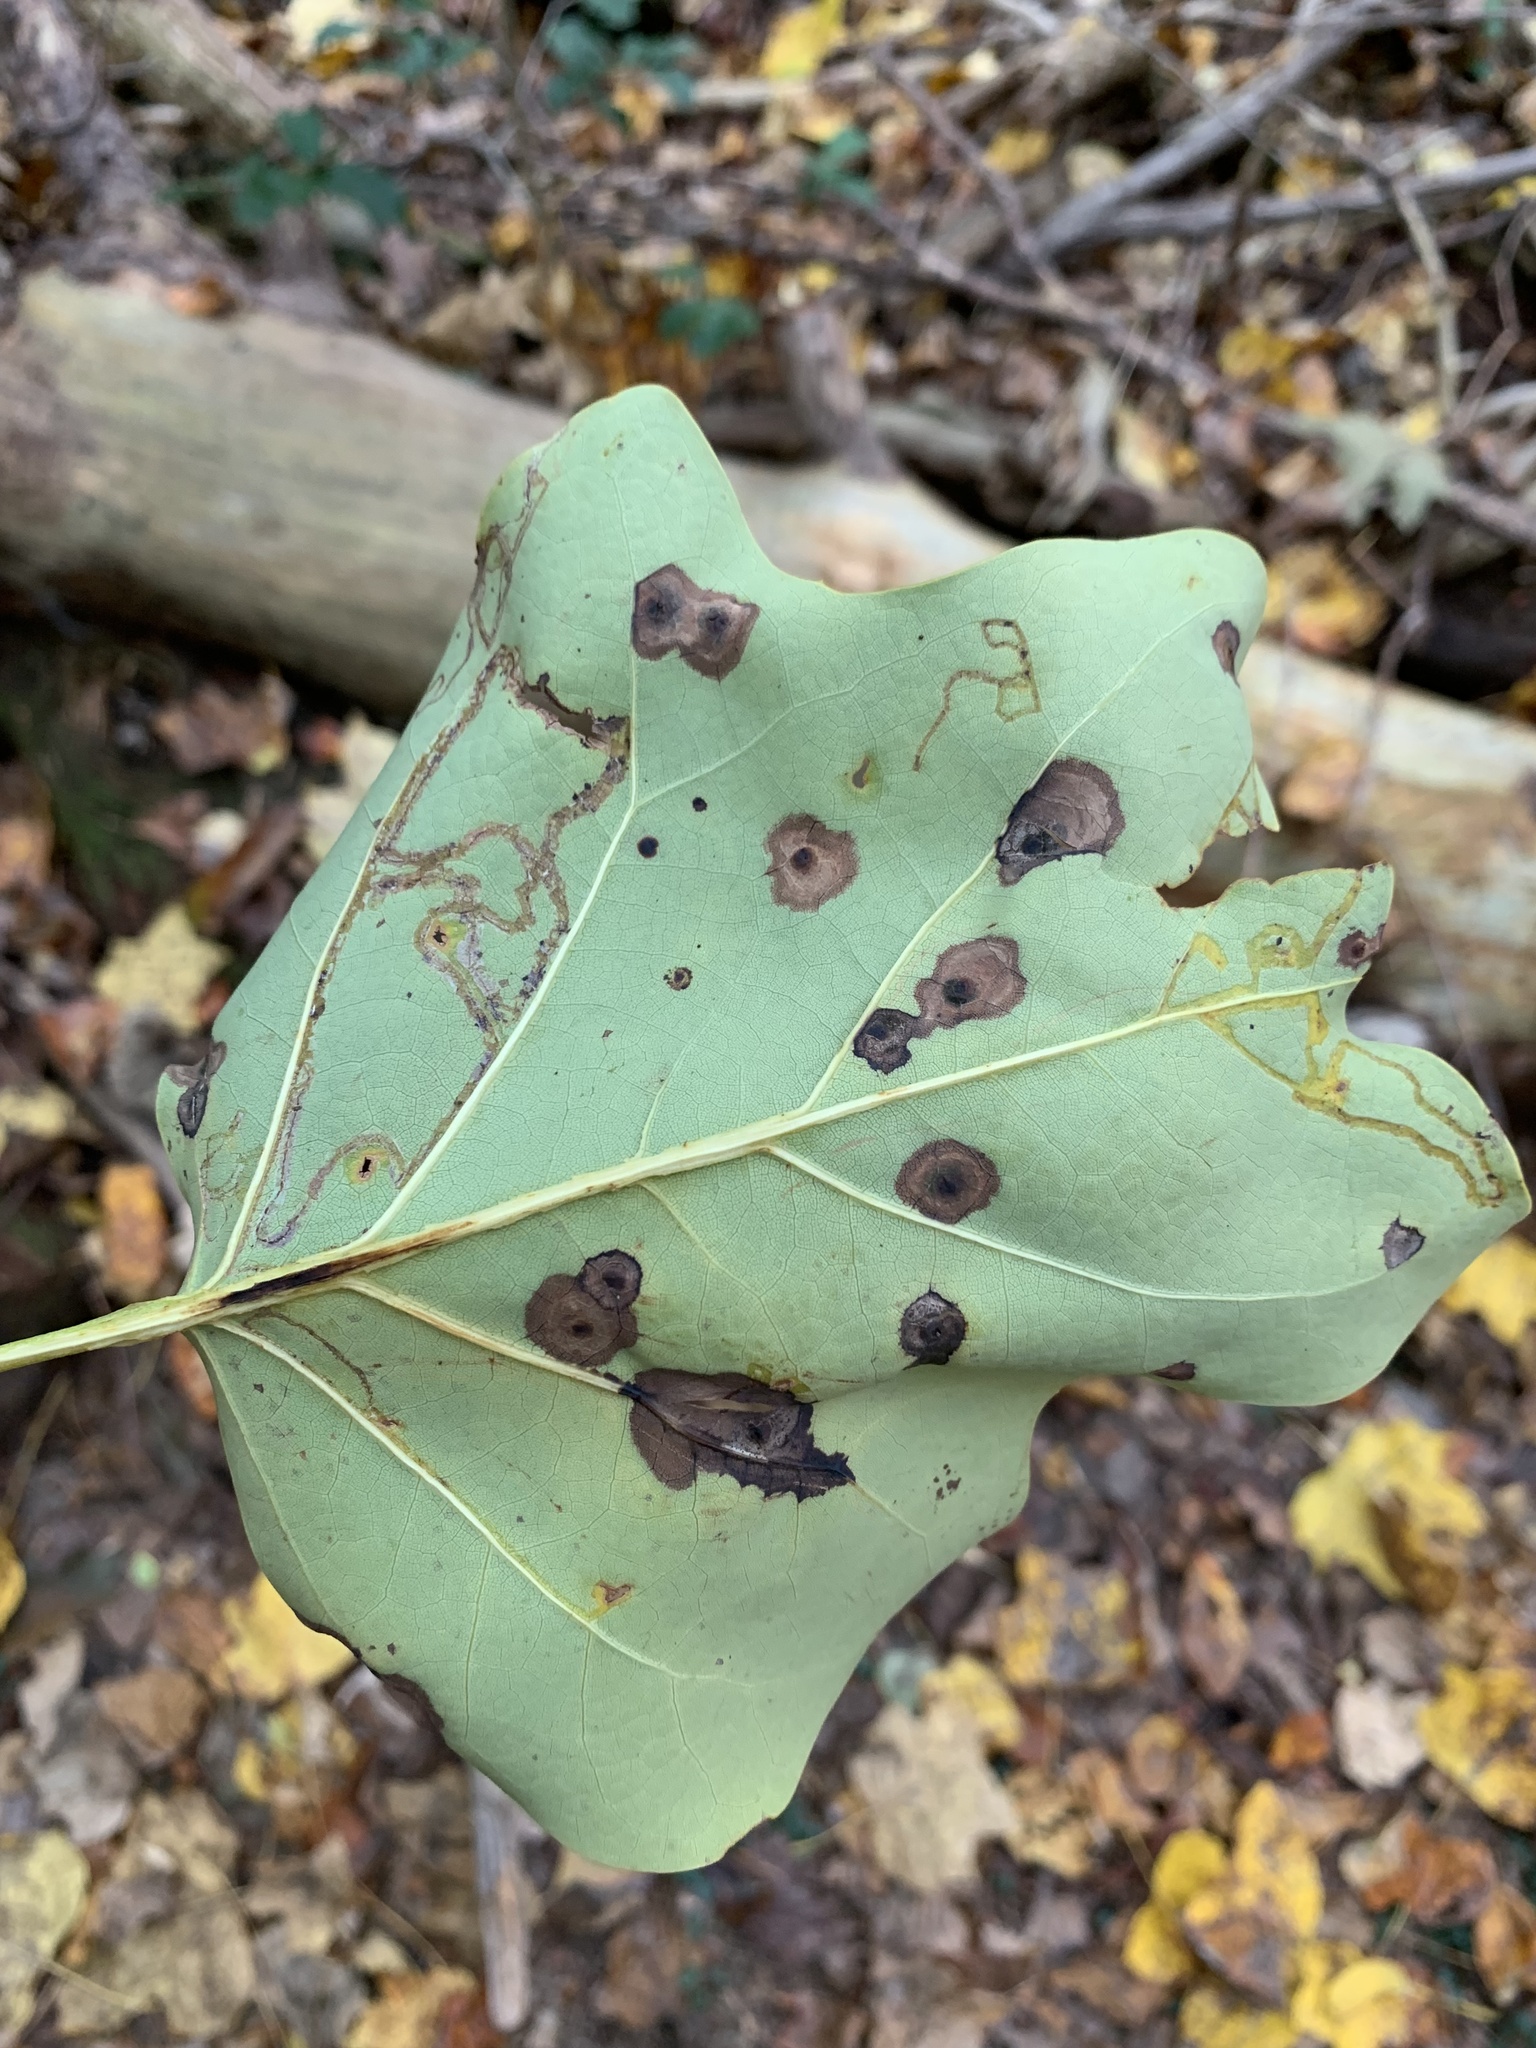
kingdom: Animalia
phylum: Arthropoda
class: Insecta
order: Lepidoptera
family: Gracillariidae
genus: Phyllocnistis
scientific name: Phyllocnistis liriodendronella
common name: Tulip tree leaf miner
